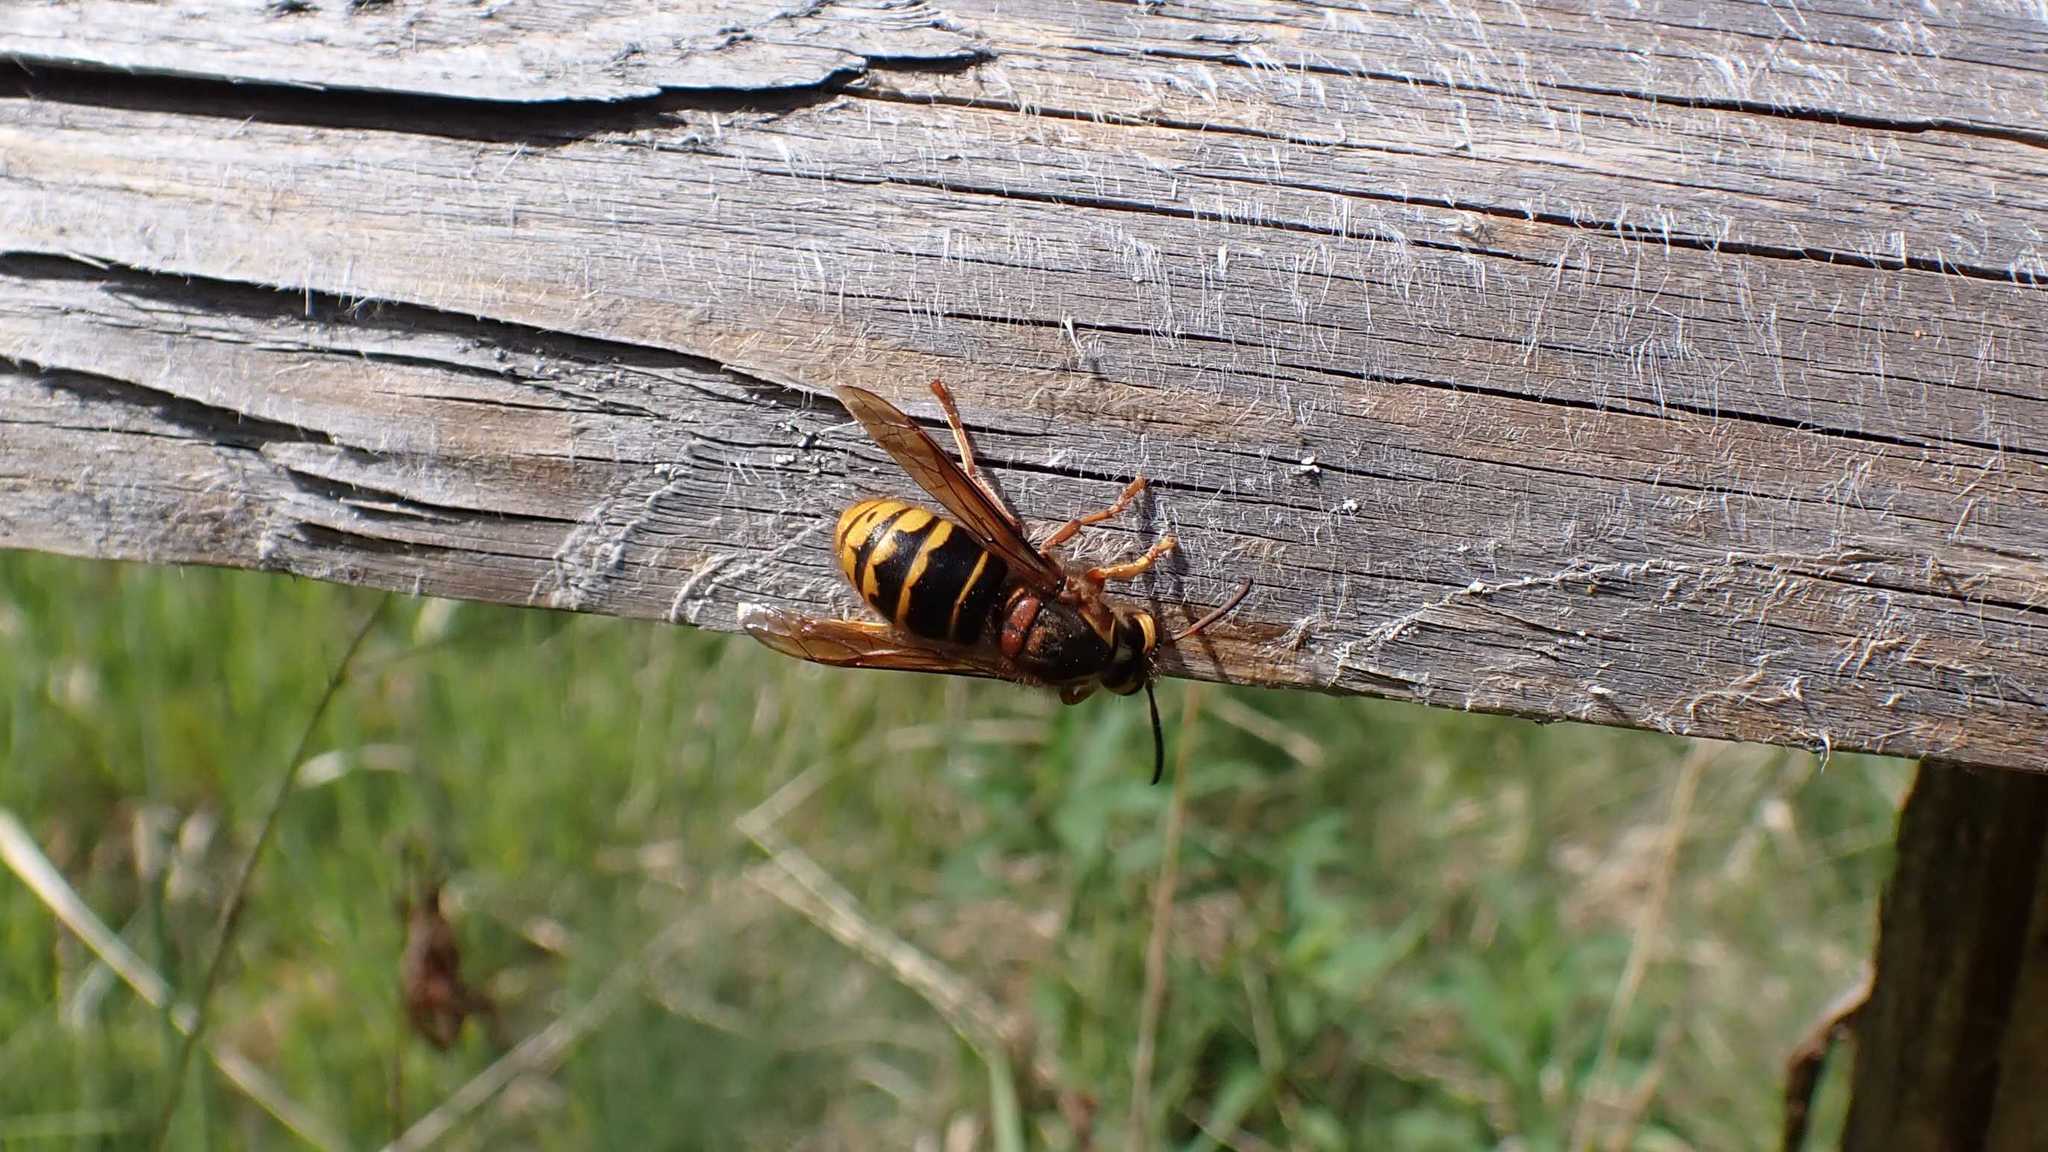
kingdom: Animalia
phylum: Arthropoda
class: Insecta
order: Hymenoptera
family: Vespidae
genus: Dolichovespula
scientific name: Dolichovespula media
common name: Median wasp
